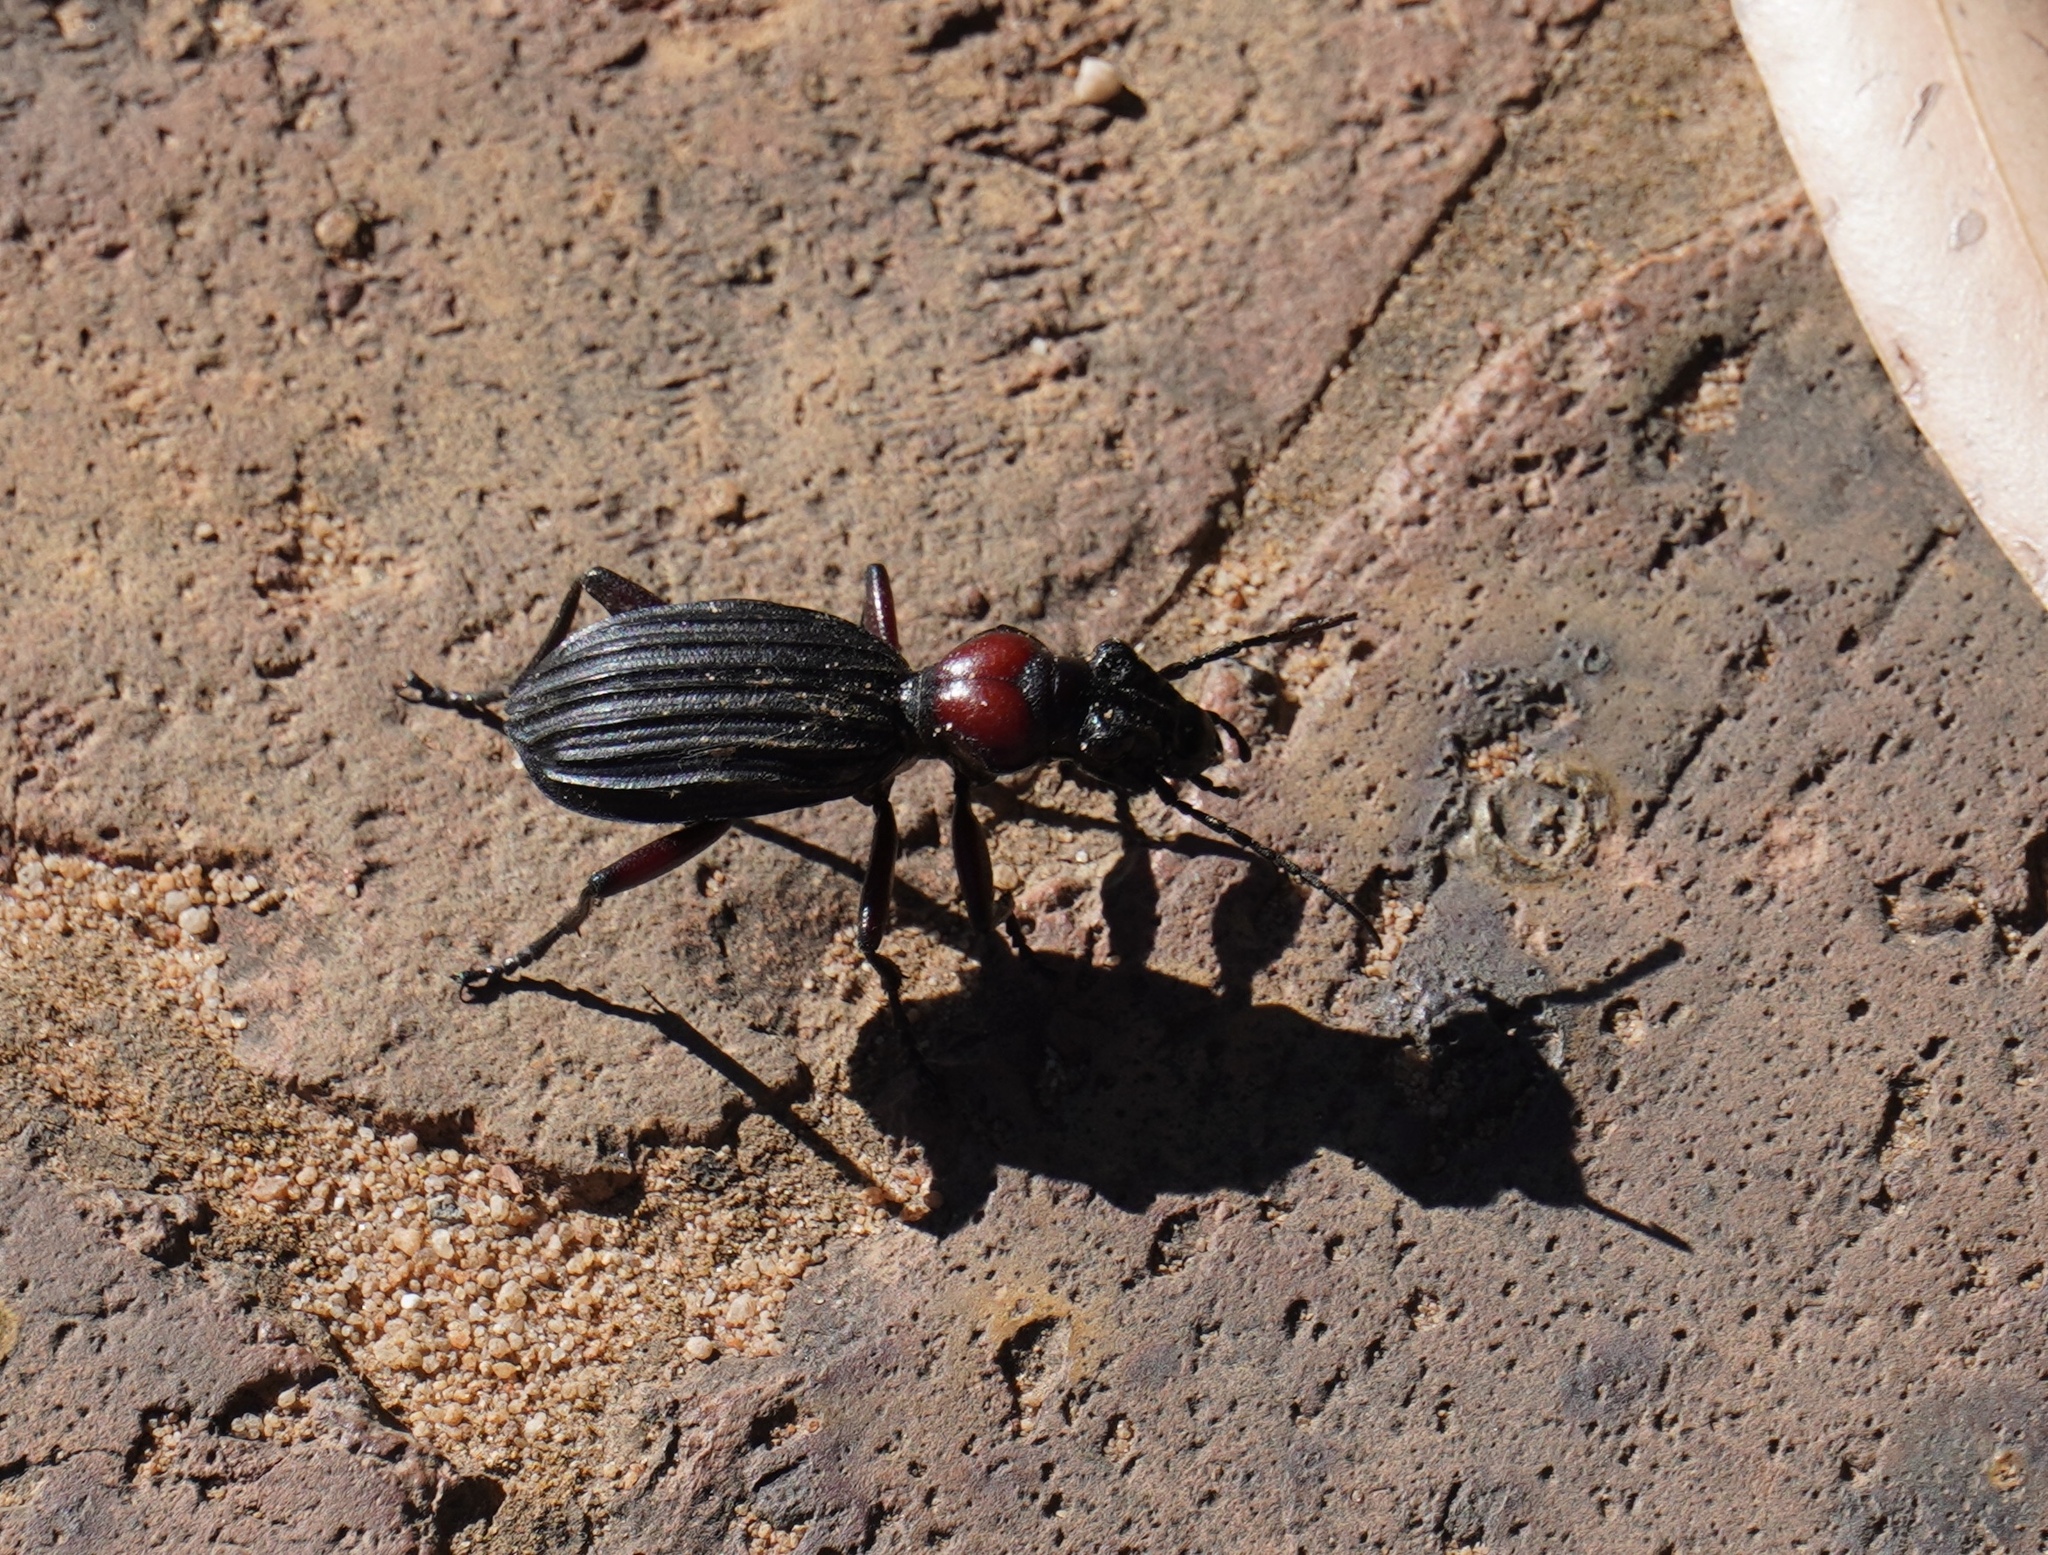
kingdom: Animalia
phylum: Arthropoda
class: Insecta
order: Coleoptera
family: Carabidae
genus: Anthia
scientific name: Anthia decemguttata
